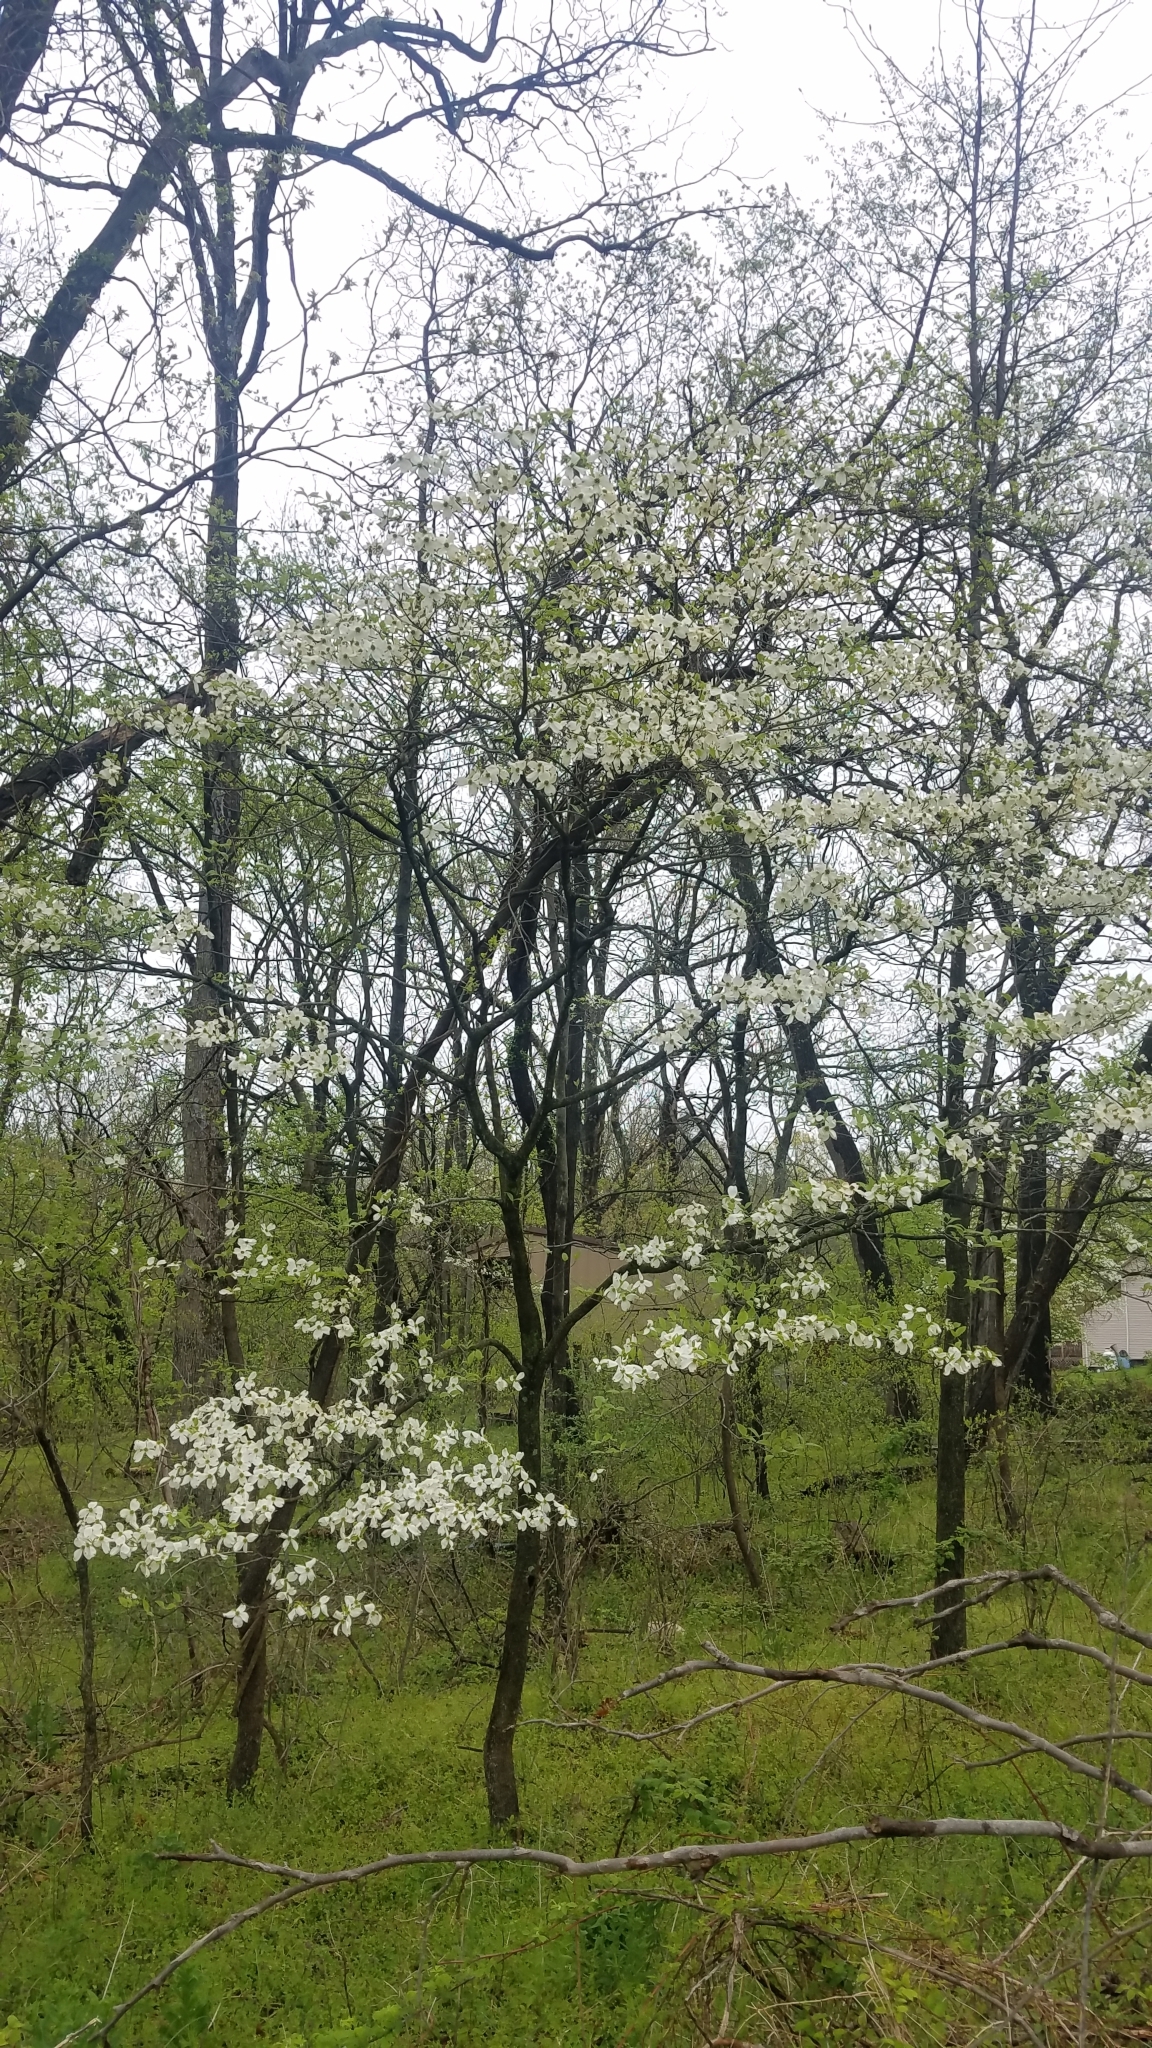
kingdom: Plantae
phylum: Tracheophyta
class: Magnoliopsida
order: Cornales
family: Cornaceae
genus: Cornus
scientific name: Cornus florida
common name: Flowering dogwood
